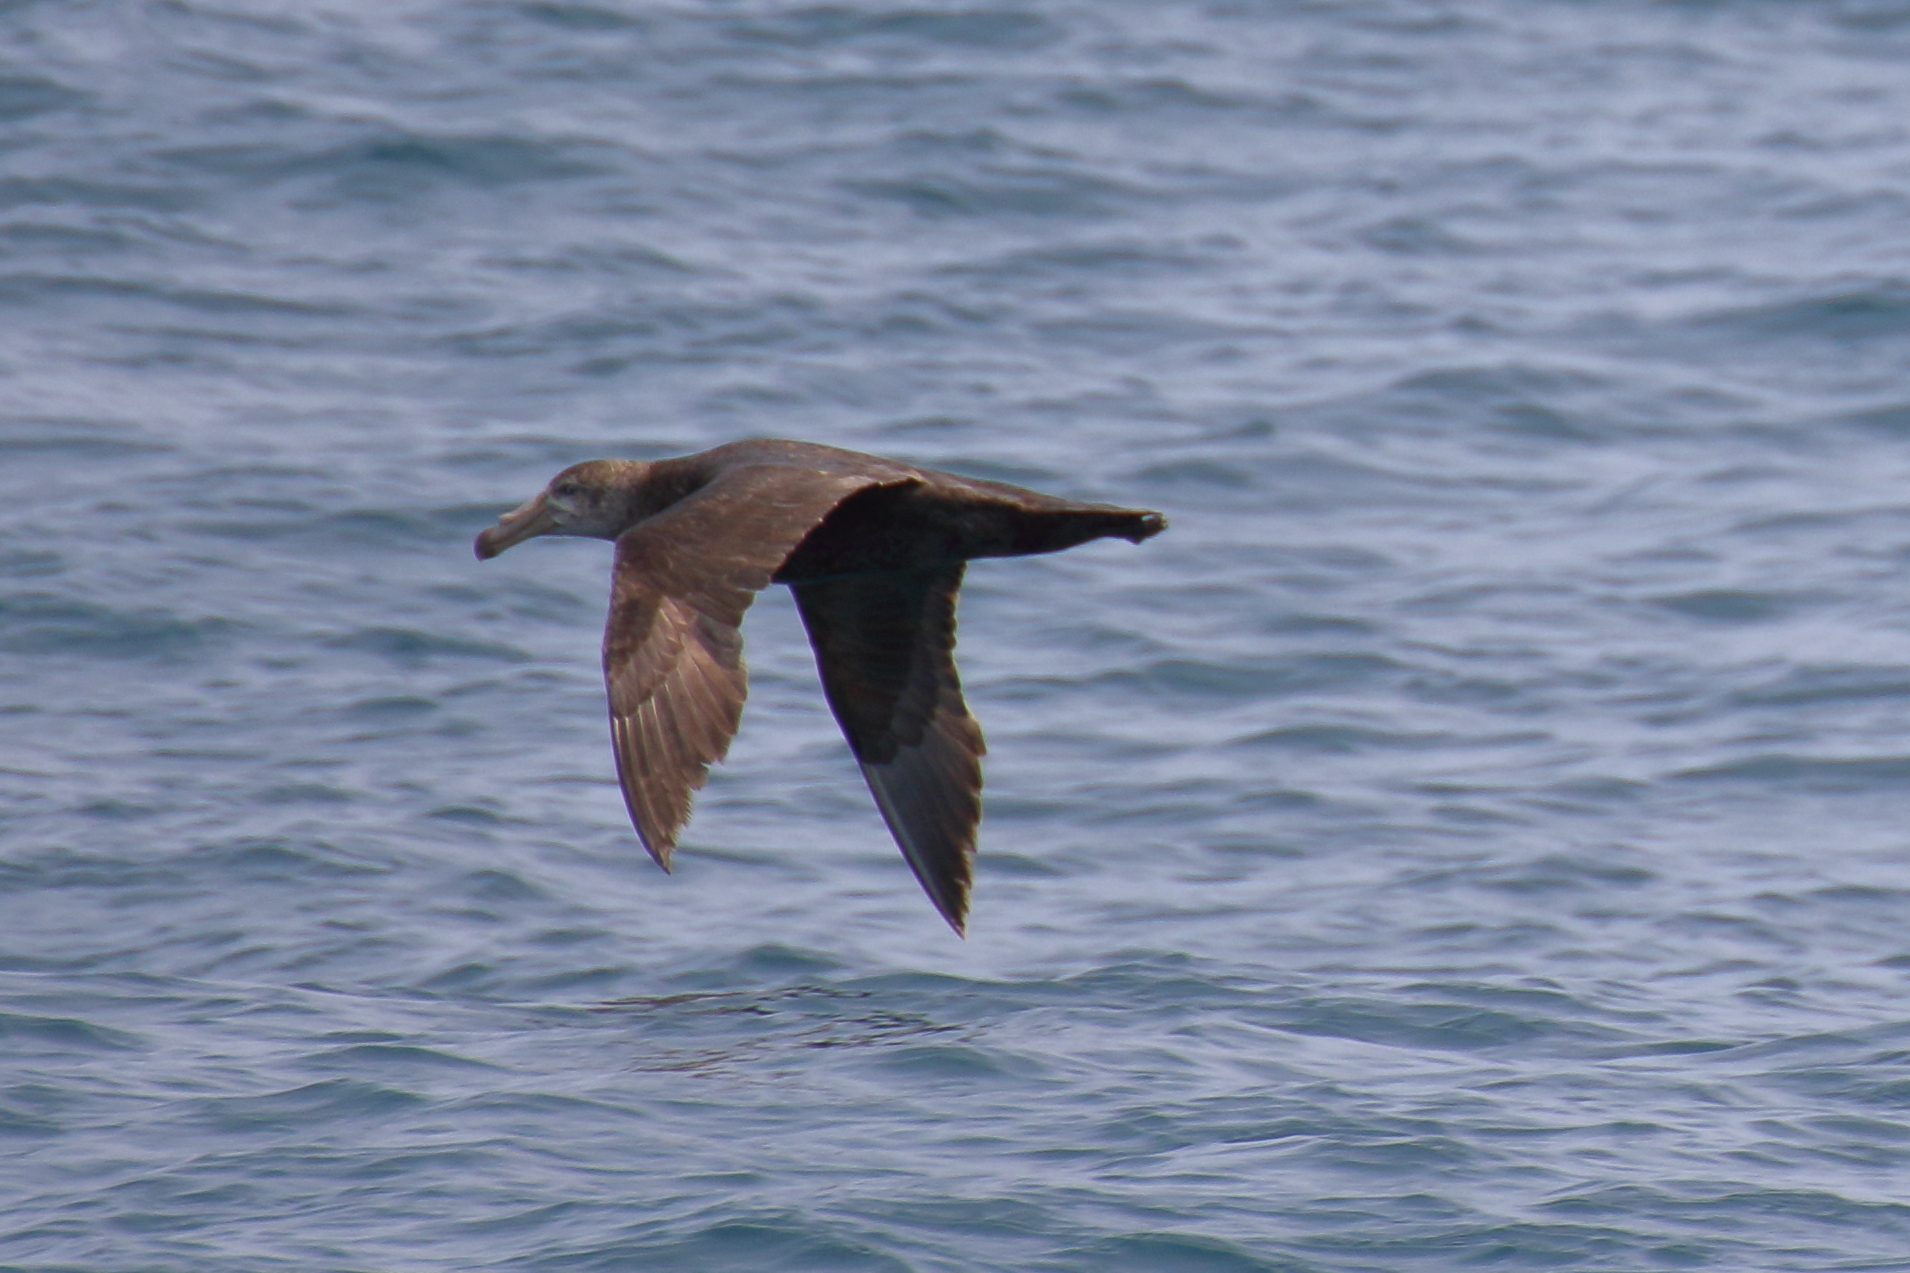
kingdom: Animalia
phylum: Chordata
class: Aves
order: Procellariiformes
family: Procellariidae
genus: Macronectes
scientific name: Macronectes halli
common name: Northern giant petrel
